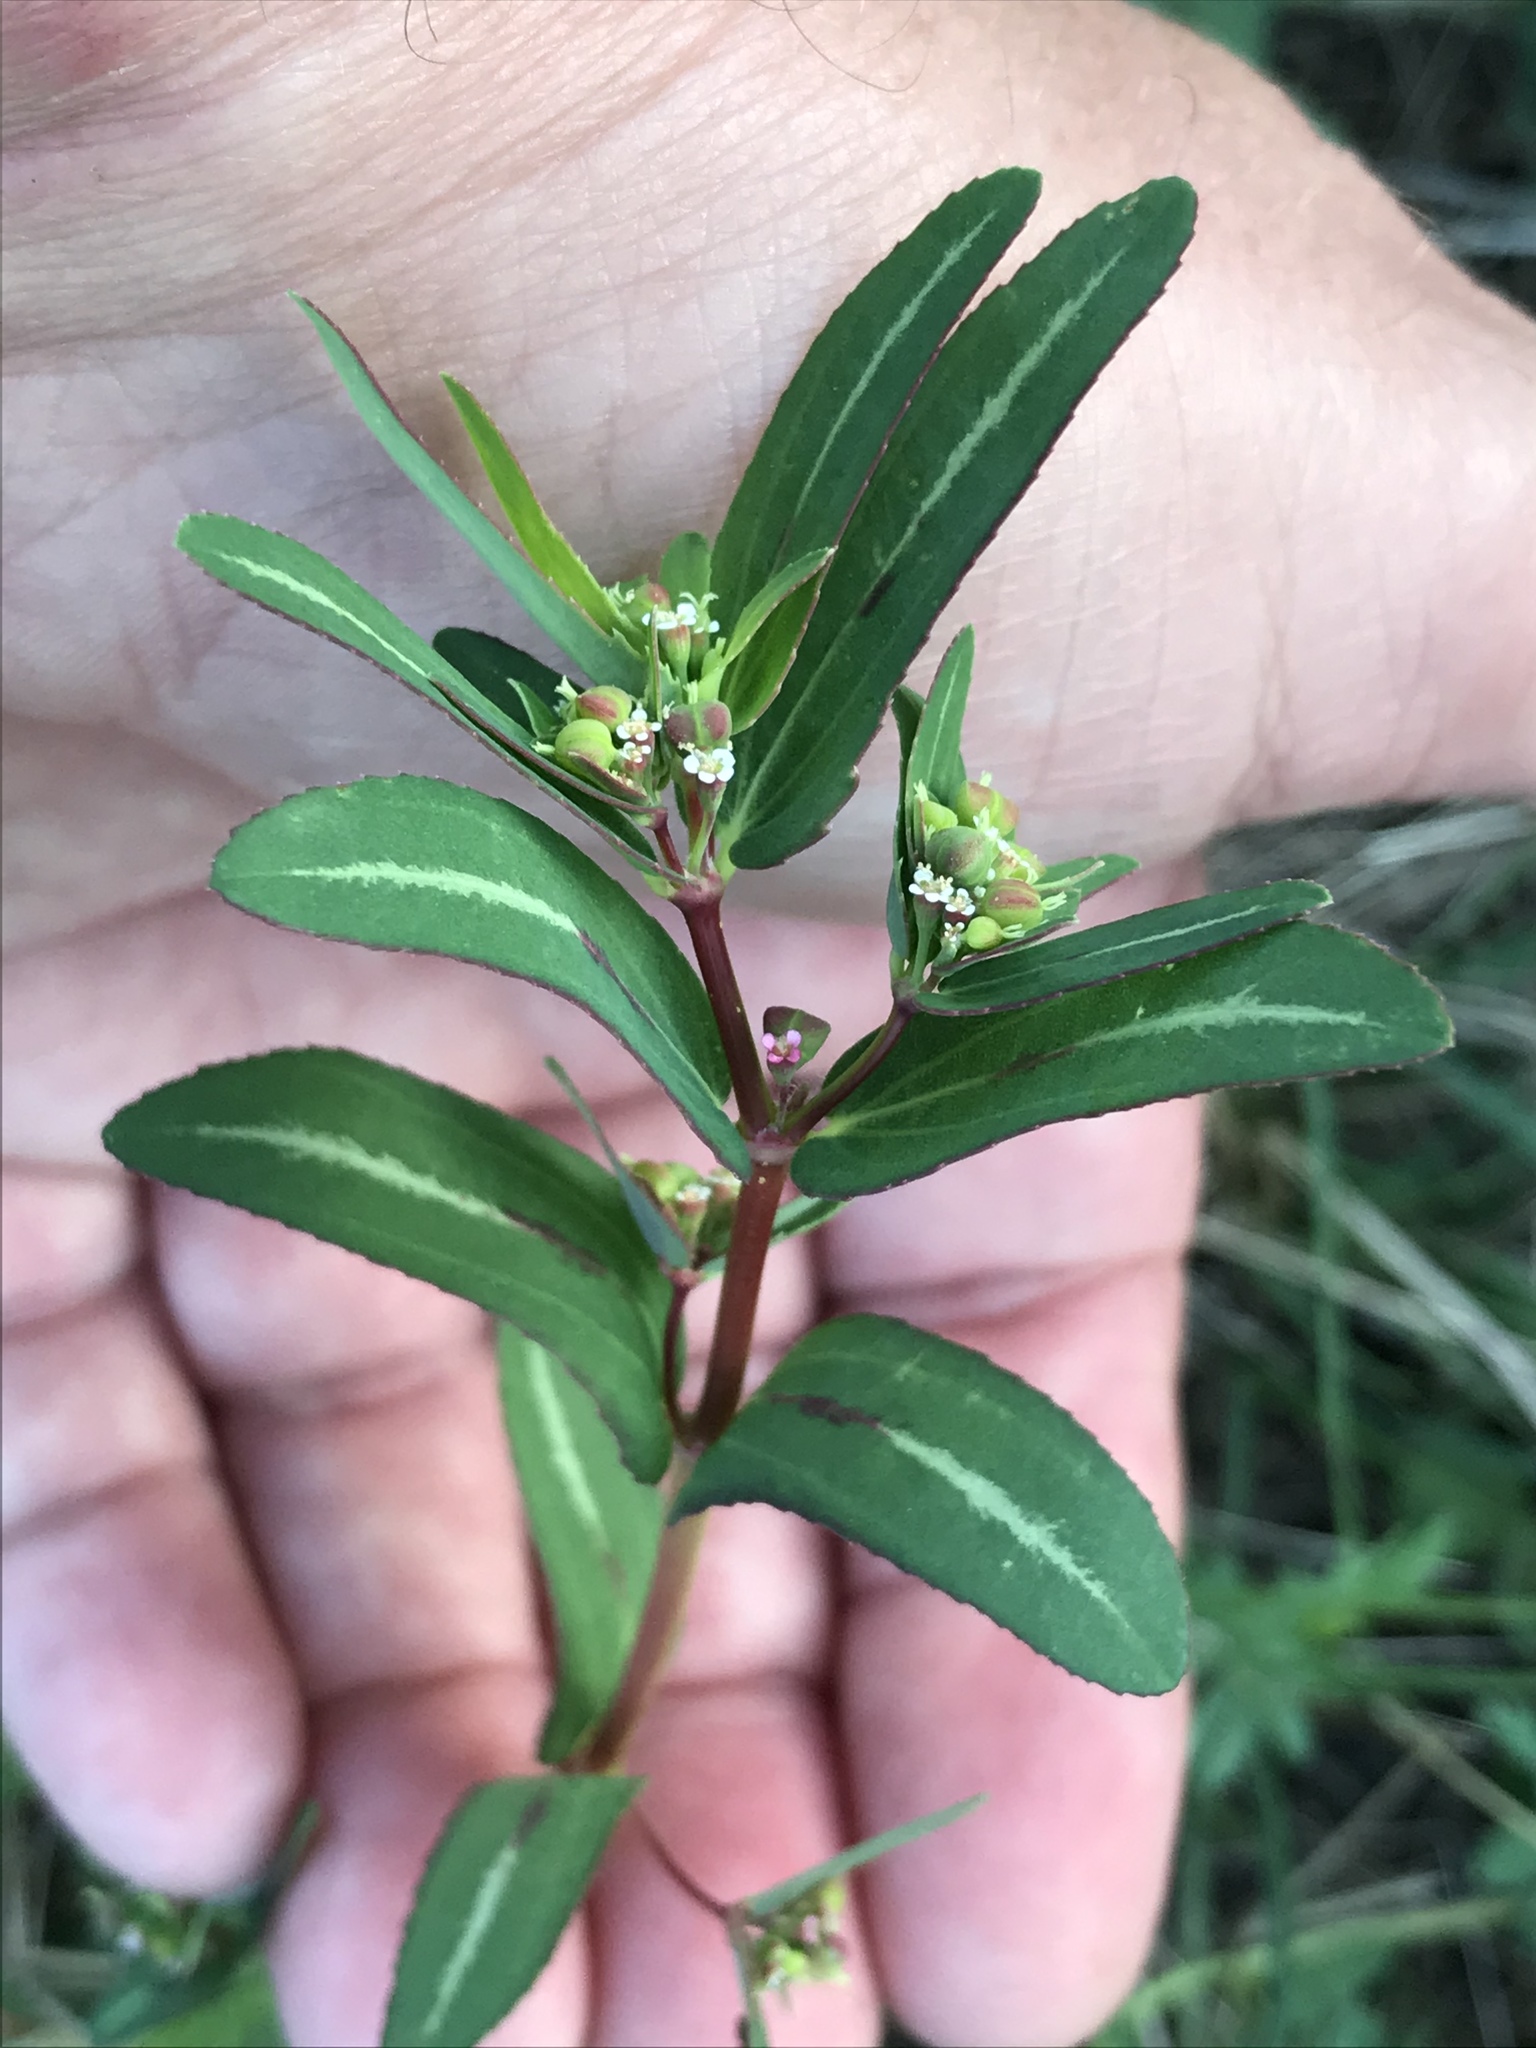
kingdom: Plantae
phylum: Tracheophyta
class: Magnoliopsida
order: Malpighiales
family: Euphorbiaceae
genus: Euphorbia
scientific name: Euphorbia hyssopifolia
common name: Hyssopleaf sandmat
